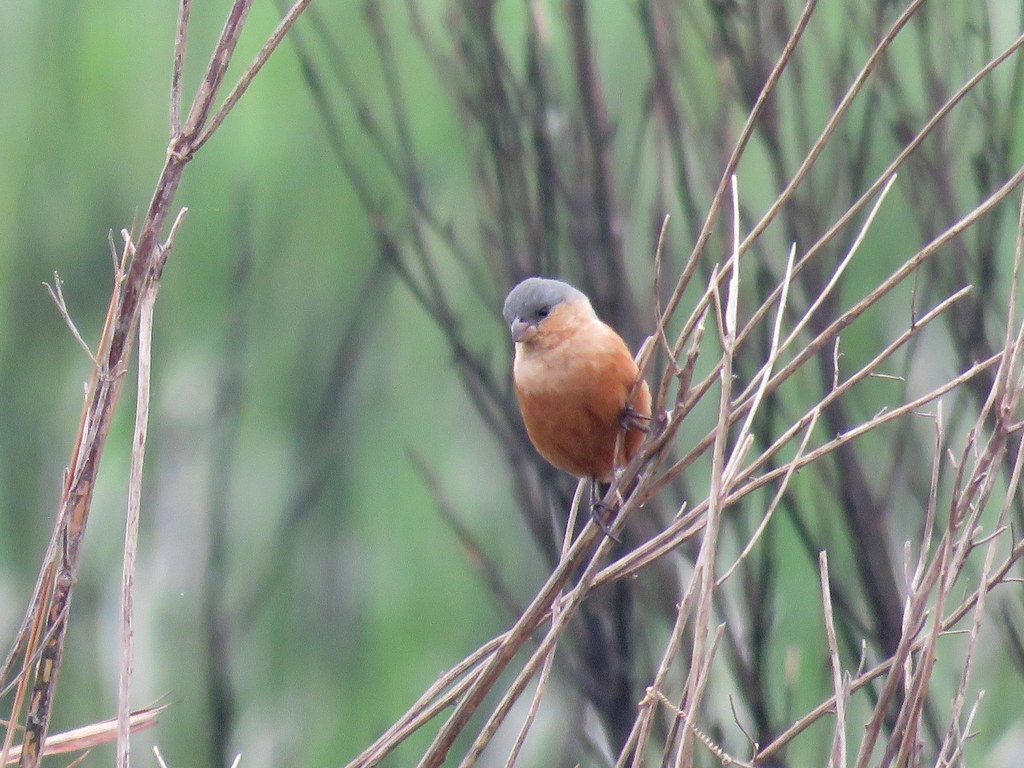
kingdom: Animalia
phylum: Chordata
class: Aves
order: Passeriformes
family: Thraupidae
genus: Sporophila
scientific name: Sporophila hypoxantha
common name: Tawny-bellied seedeater
